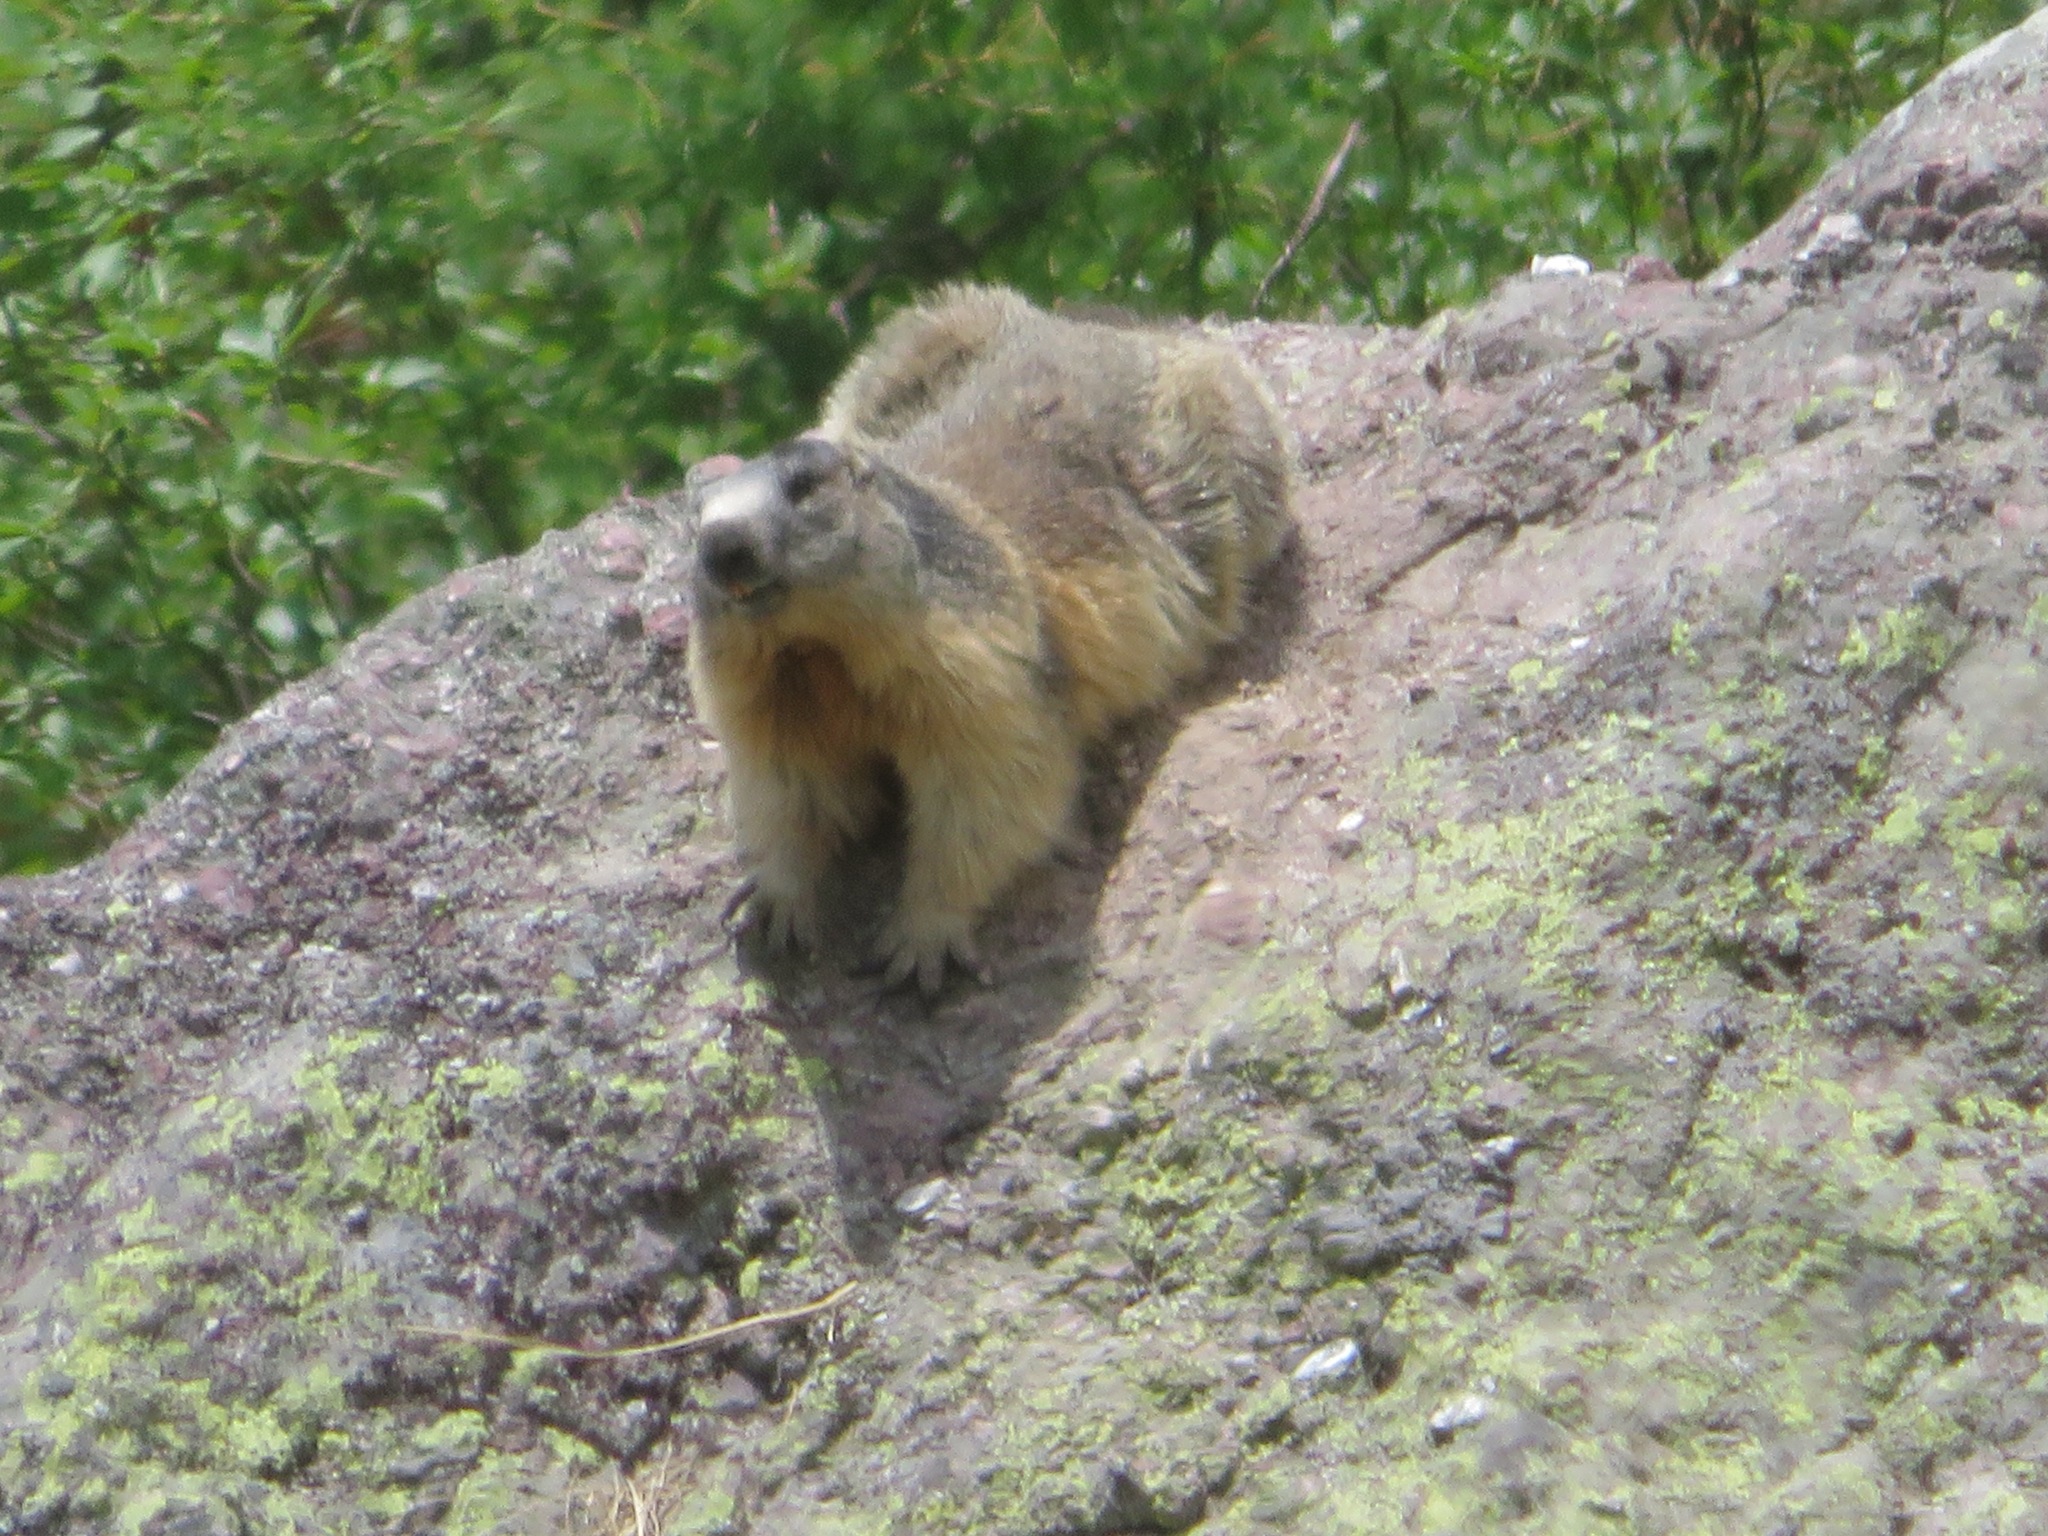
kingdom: Animalia
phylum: Chordata
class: Mammalia
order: Rodentia
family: Sciuridae
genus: Marmota
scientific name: Marmota marmota
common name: Alpine marmot
